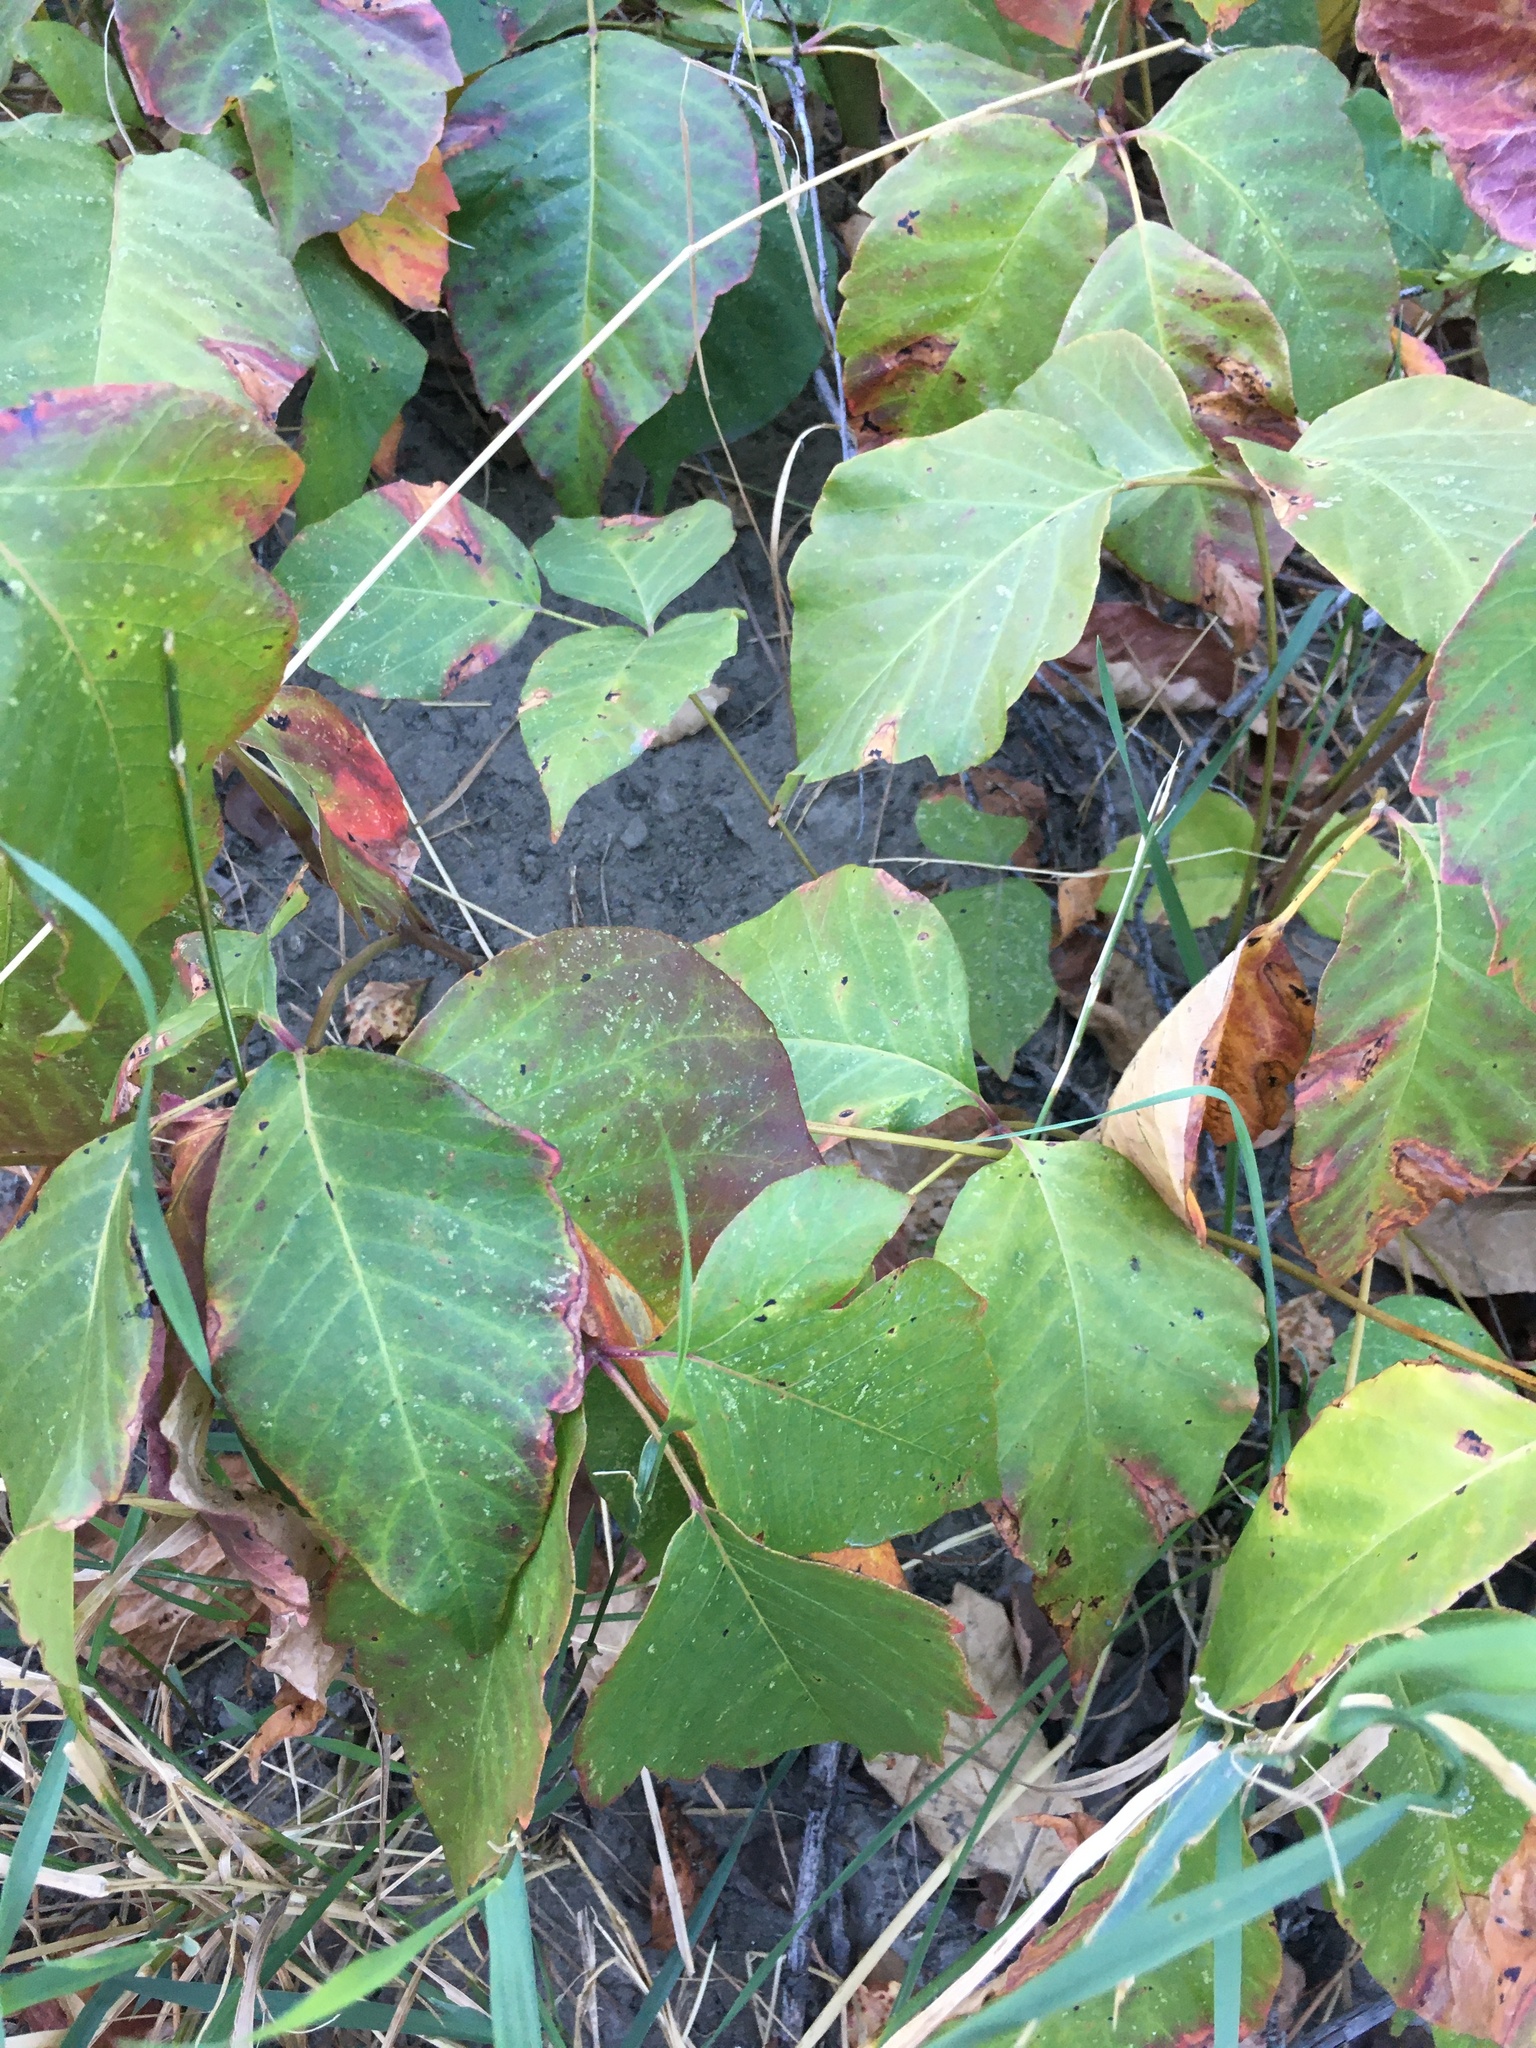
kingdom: Plantae
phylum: Tracheophyta
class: Magnoliopsida
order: Sapindales
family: Anacardiaceae
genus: Toxicodendron
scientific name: Toxicodendron rydbergii
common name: Rydberg's poison-ivy
